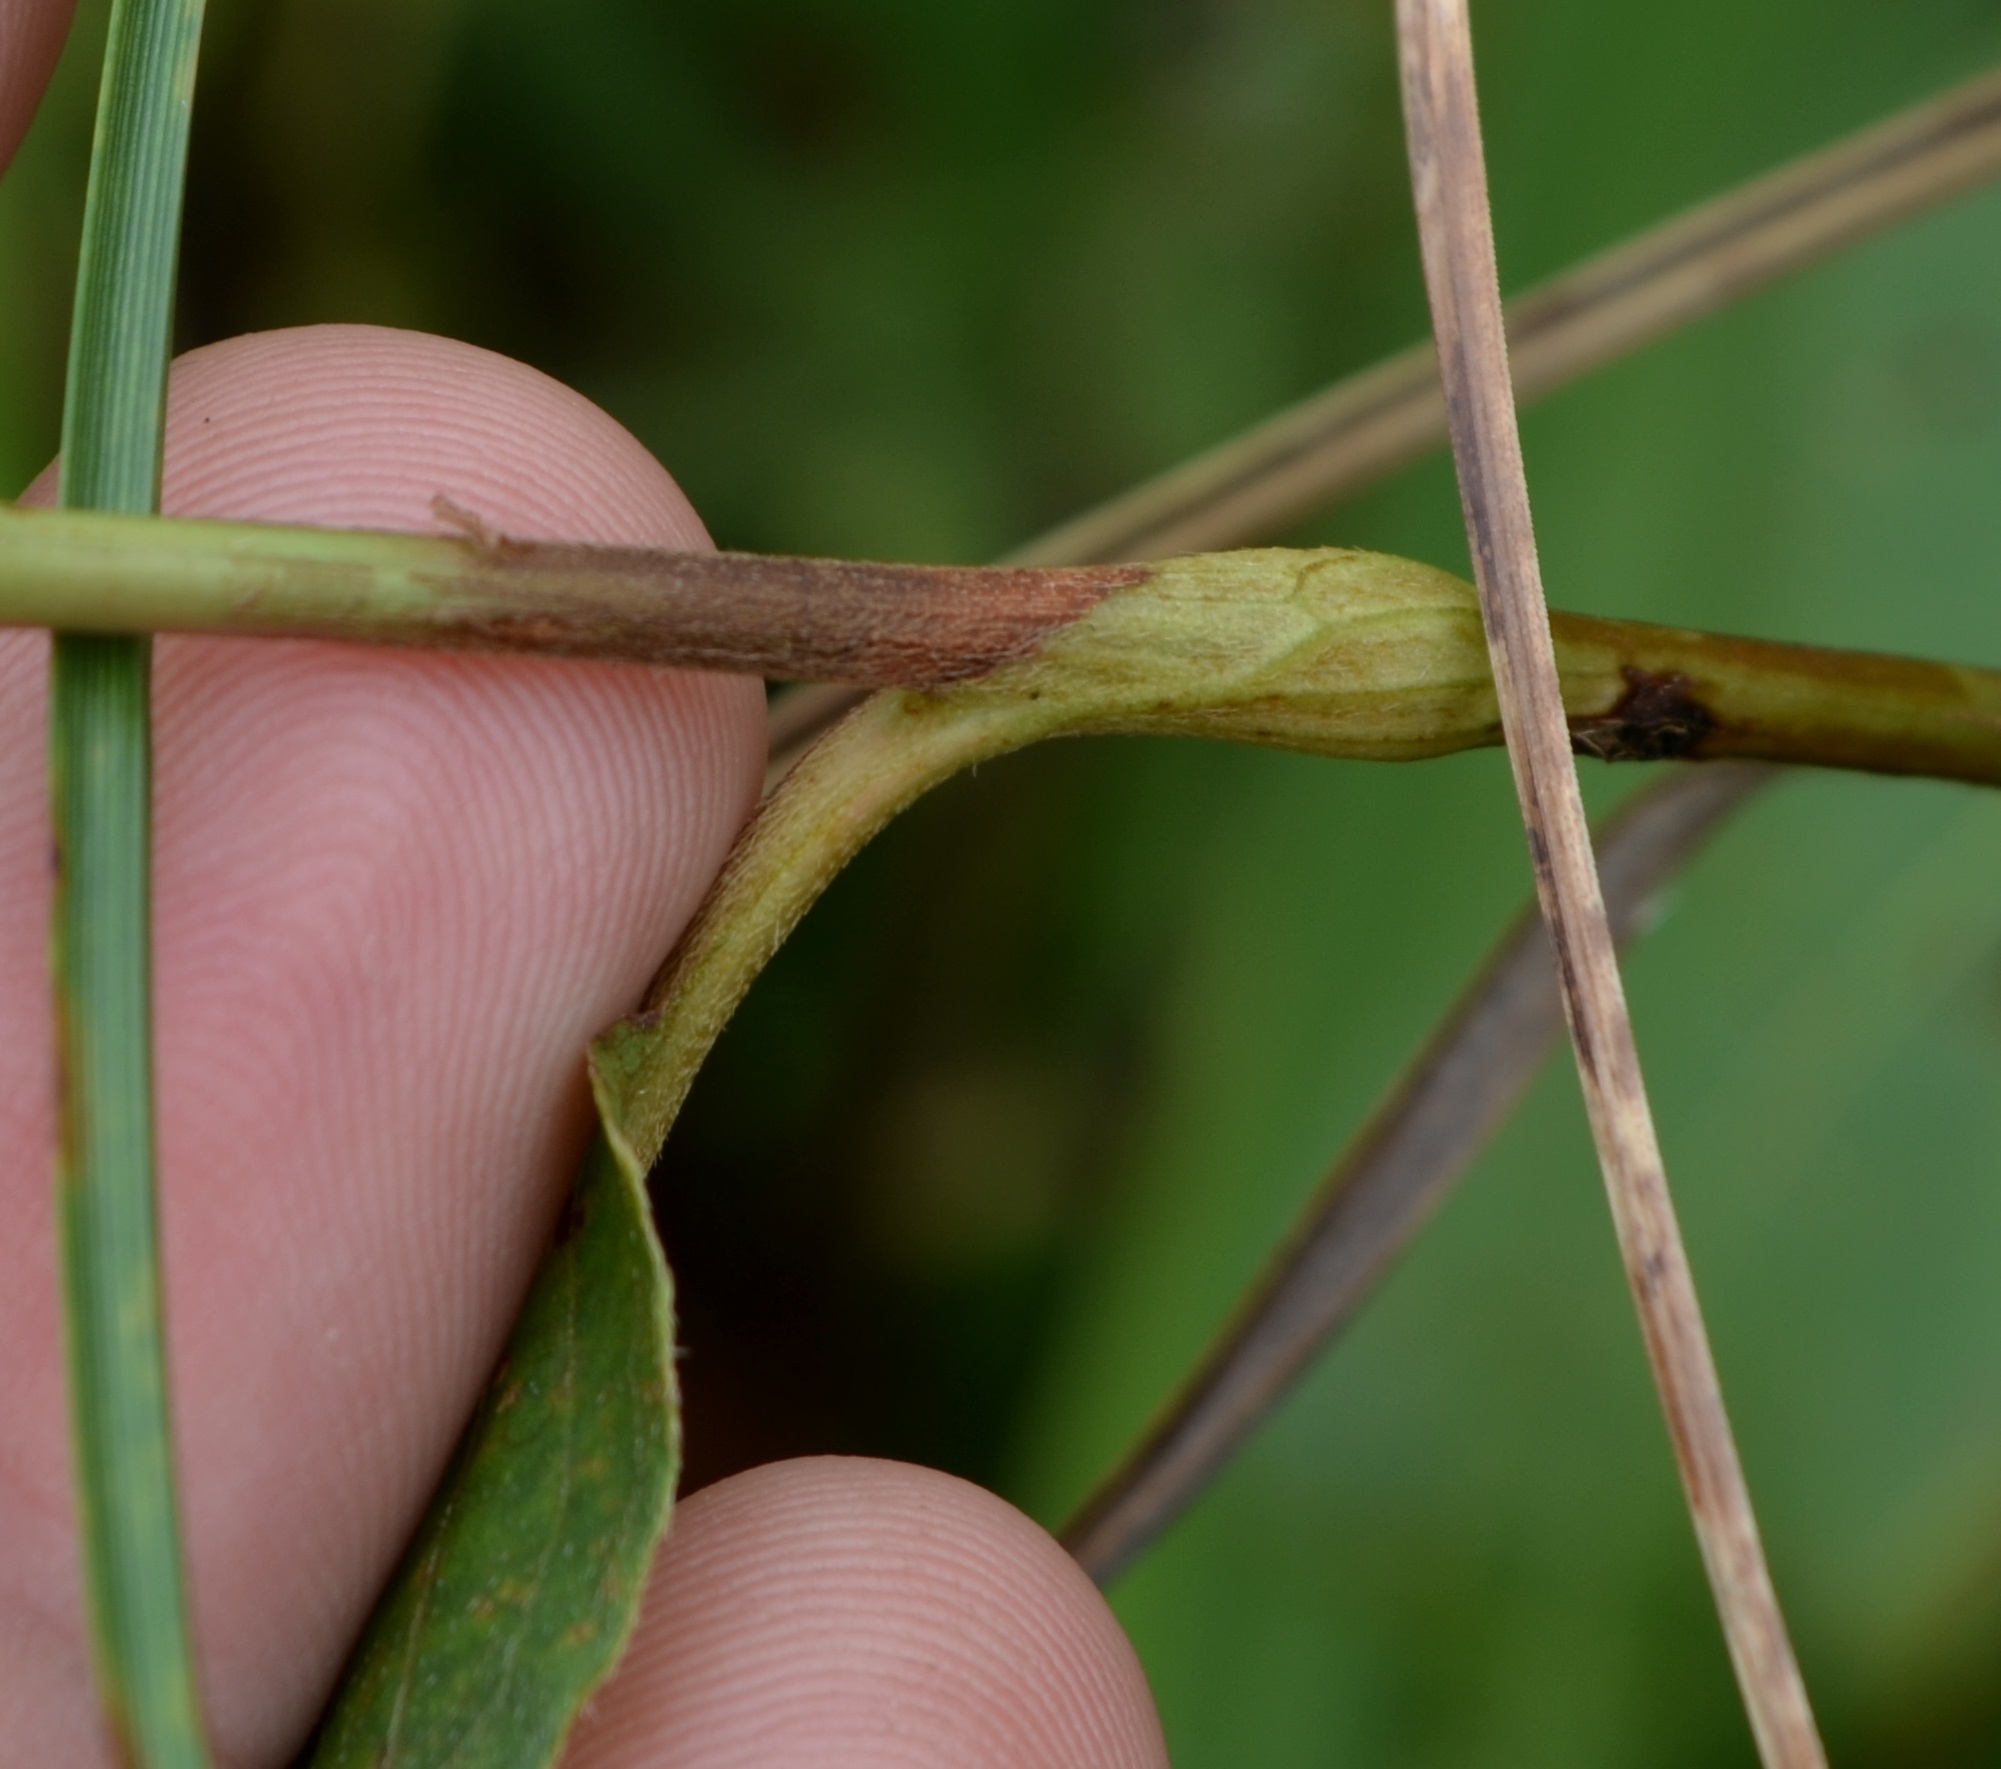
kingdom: Plantae
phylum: Tracheophyta
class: Magnoliopsida
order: Caryophyllales
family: Polygonaceae
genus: Persicaria
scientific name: Persicaria amphibia
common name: Amphibious bistort
